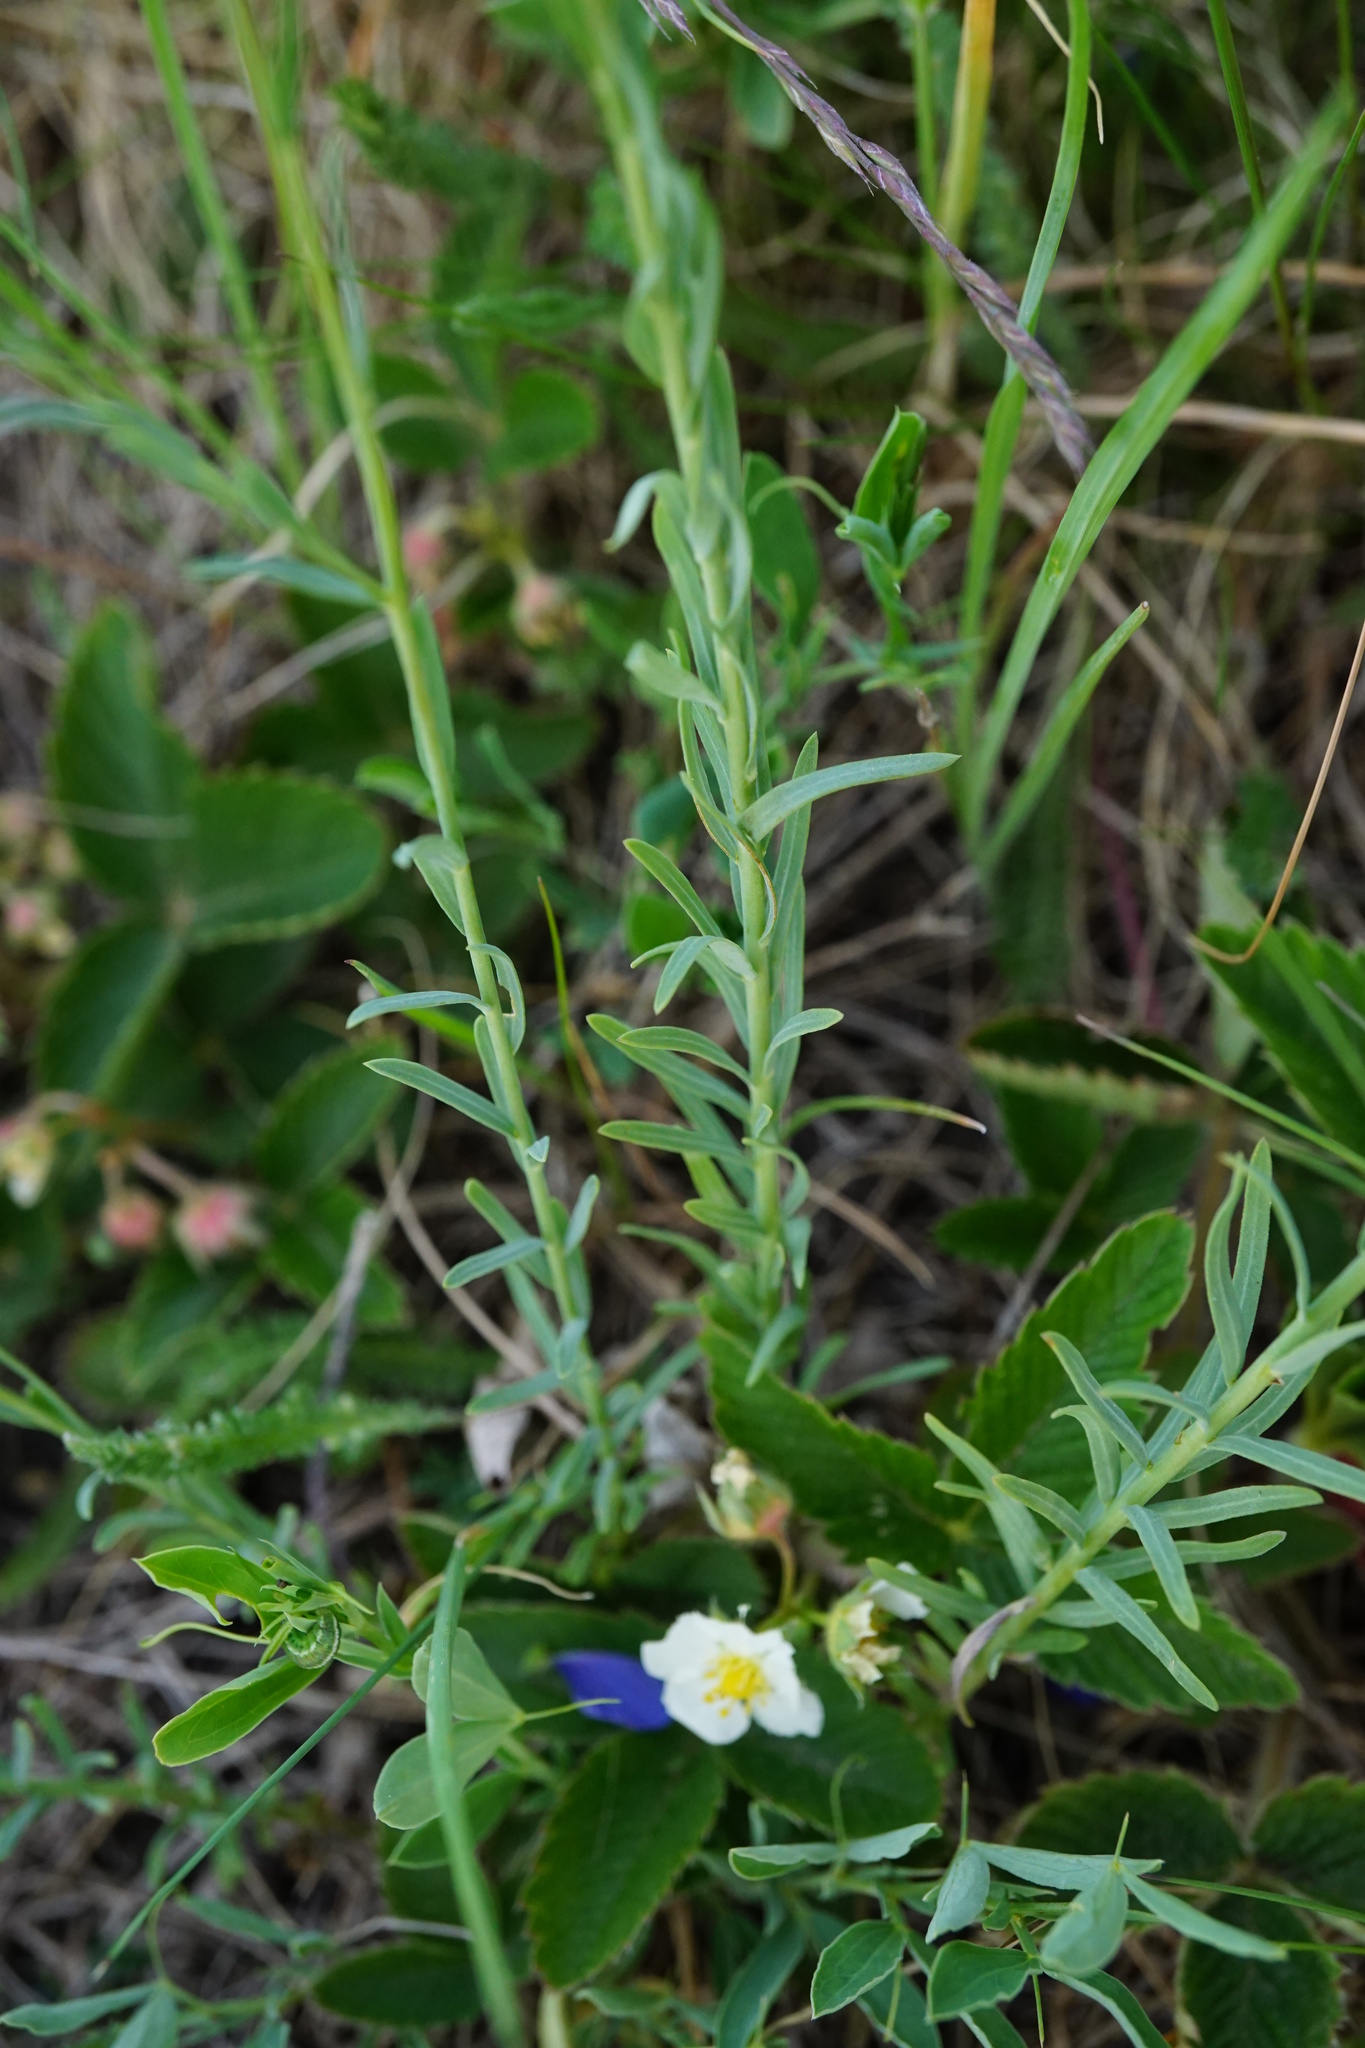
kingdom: Plantae
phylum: Tracheophyta
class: Magnoliopsida
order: Malpighiales
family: Linaceae
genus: Linum
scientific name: Linum austriacum
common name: Austrian flax
